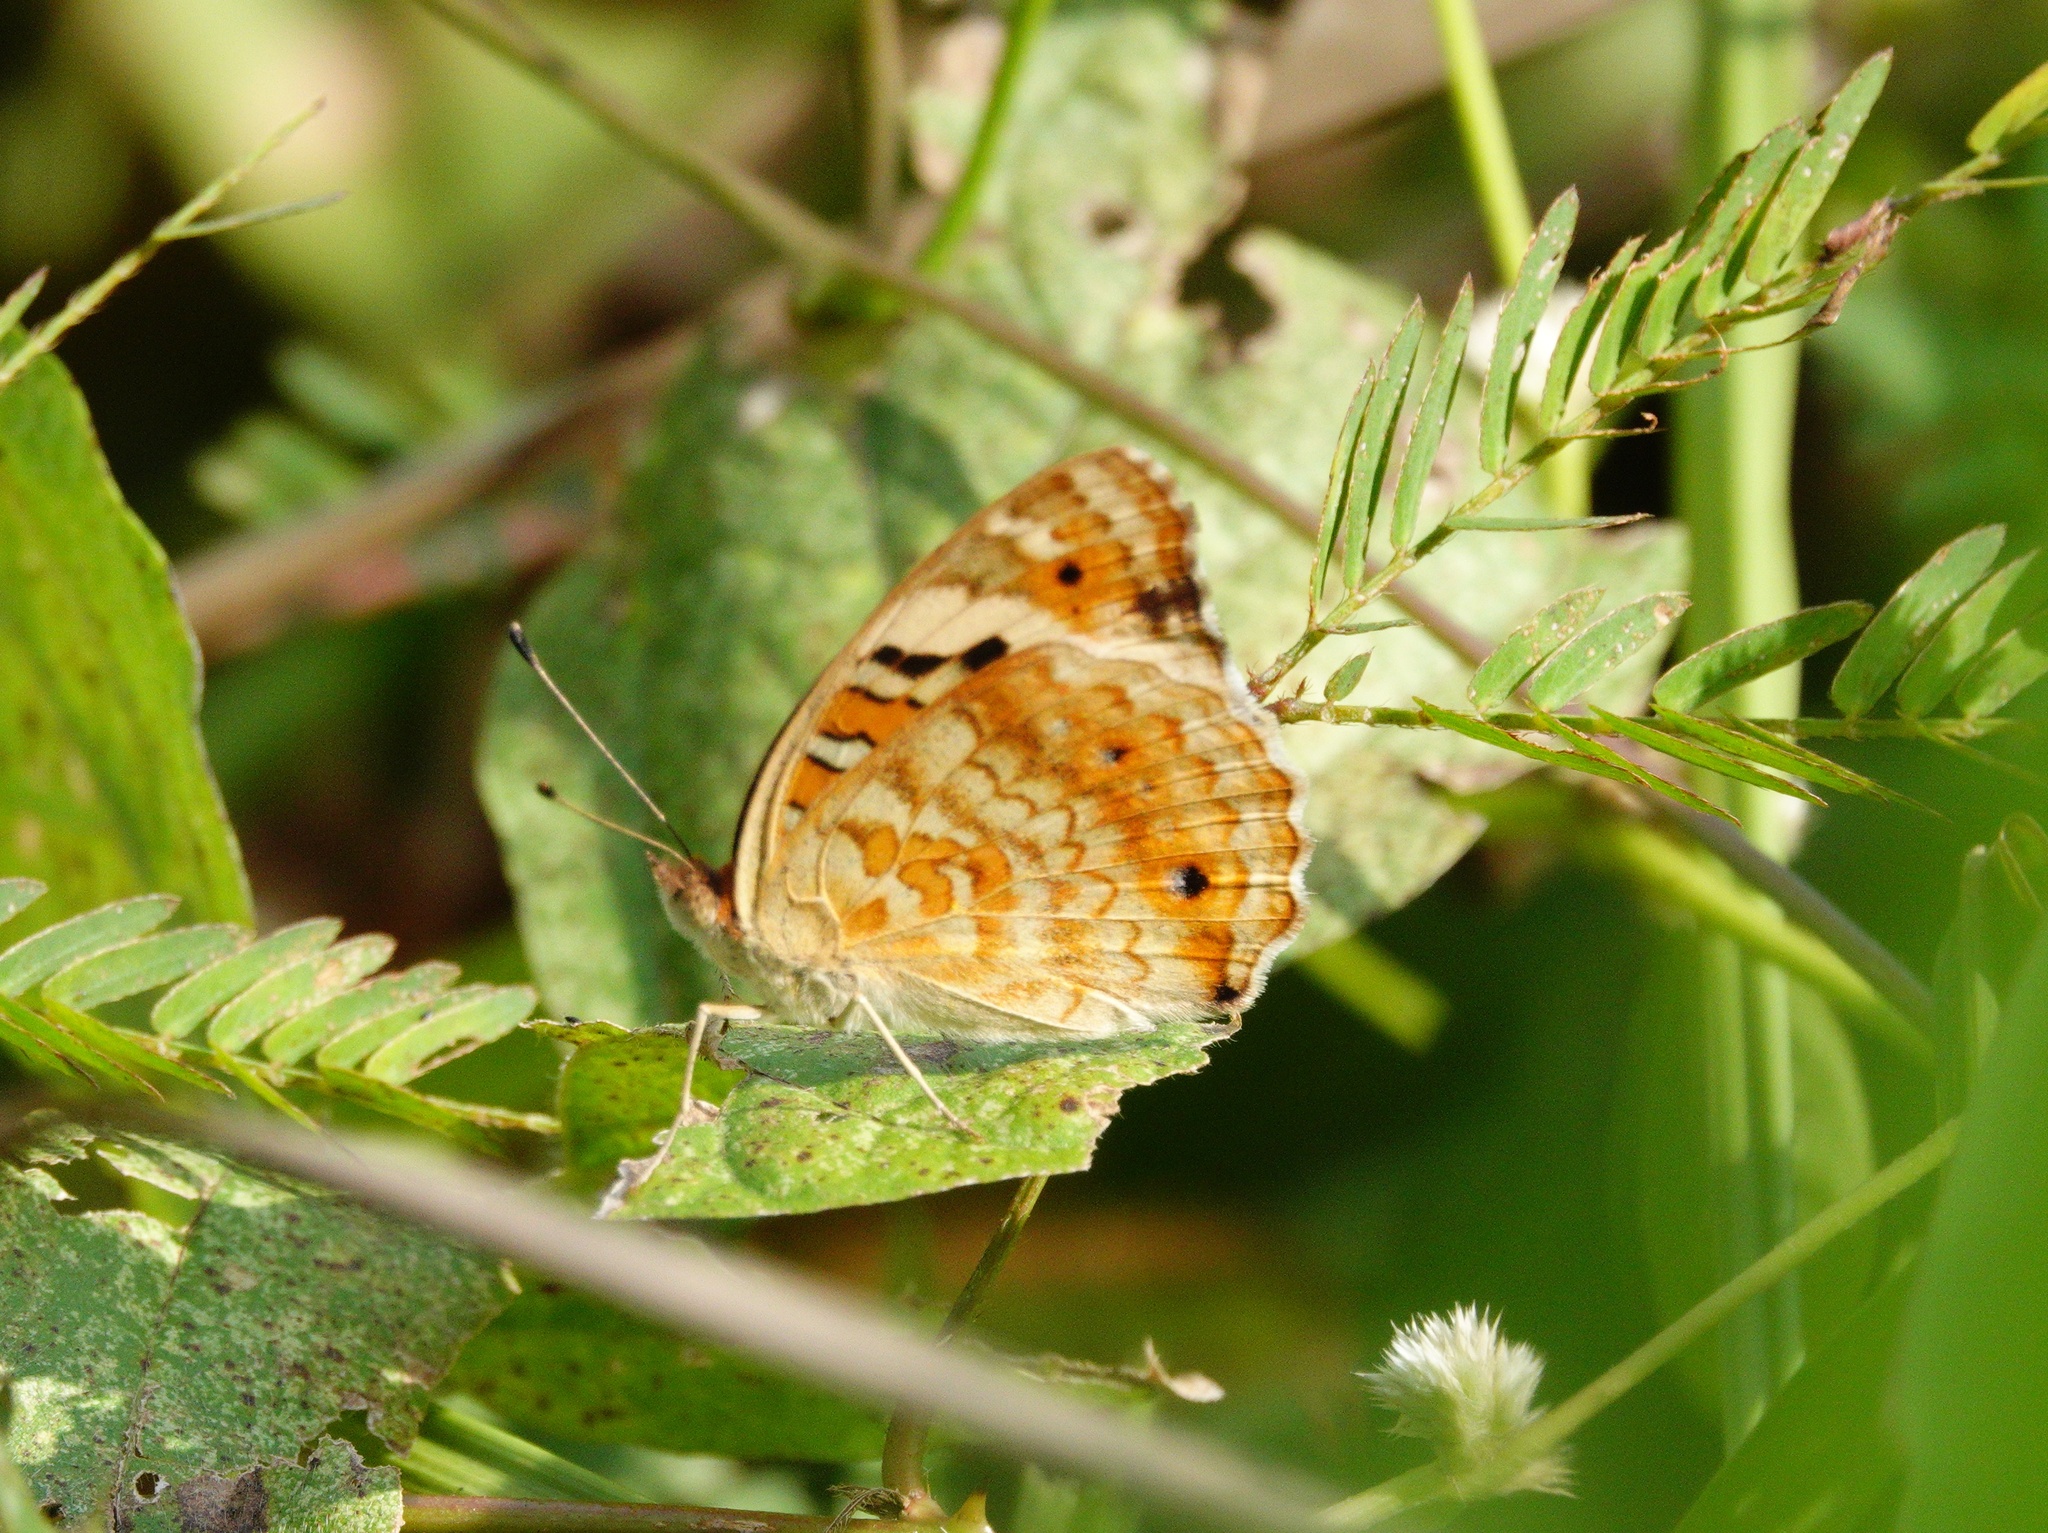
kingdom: Animalia
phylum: Arthropoda
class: Insecta
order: Lepidoptera
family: Nymphalidae
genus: Junonia
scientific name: Junonia orithya
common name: Blue pansy
